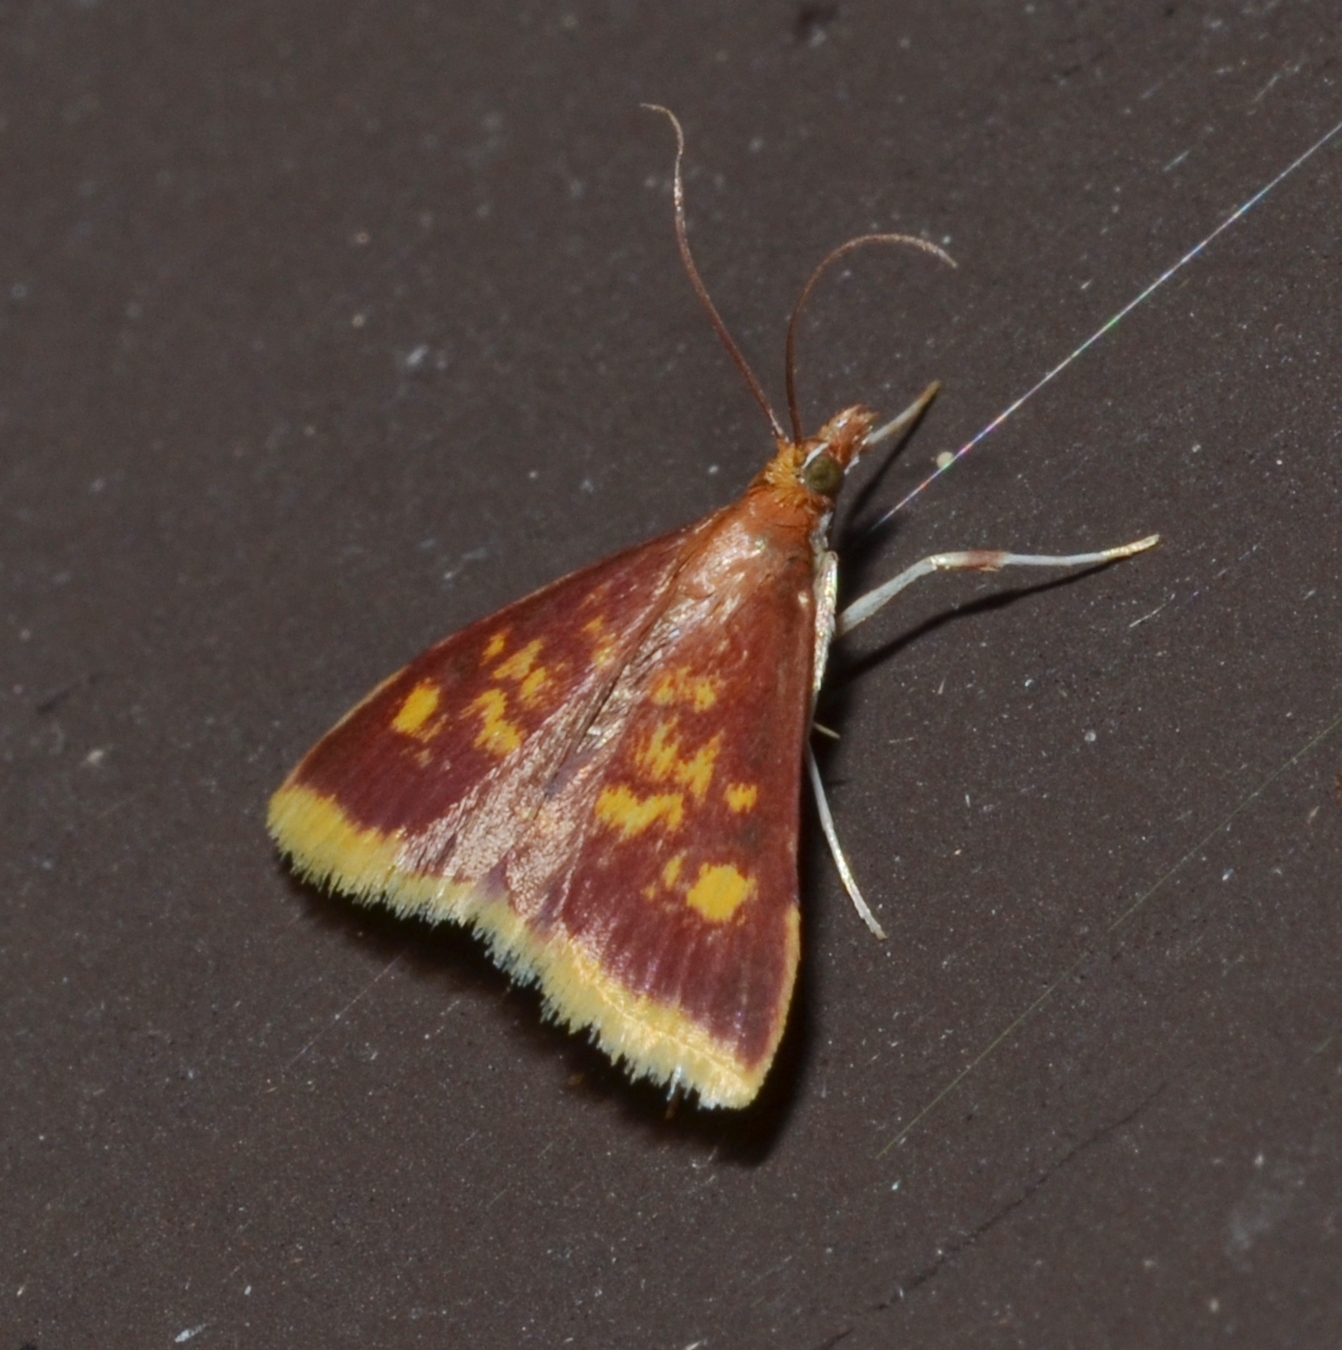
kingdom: Animalia
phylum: Arthropoda
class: Insecta
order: Lepidoptera
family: Crambidae
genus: Pyrausta
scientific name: Pyrausta acrionalis
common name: Mint-loving pyrausta moth
